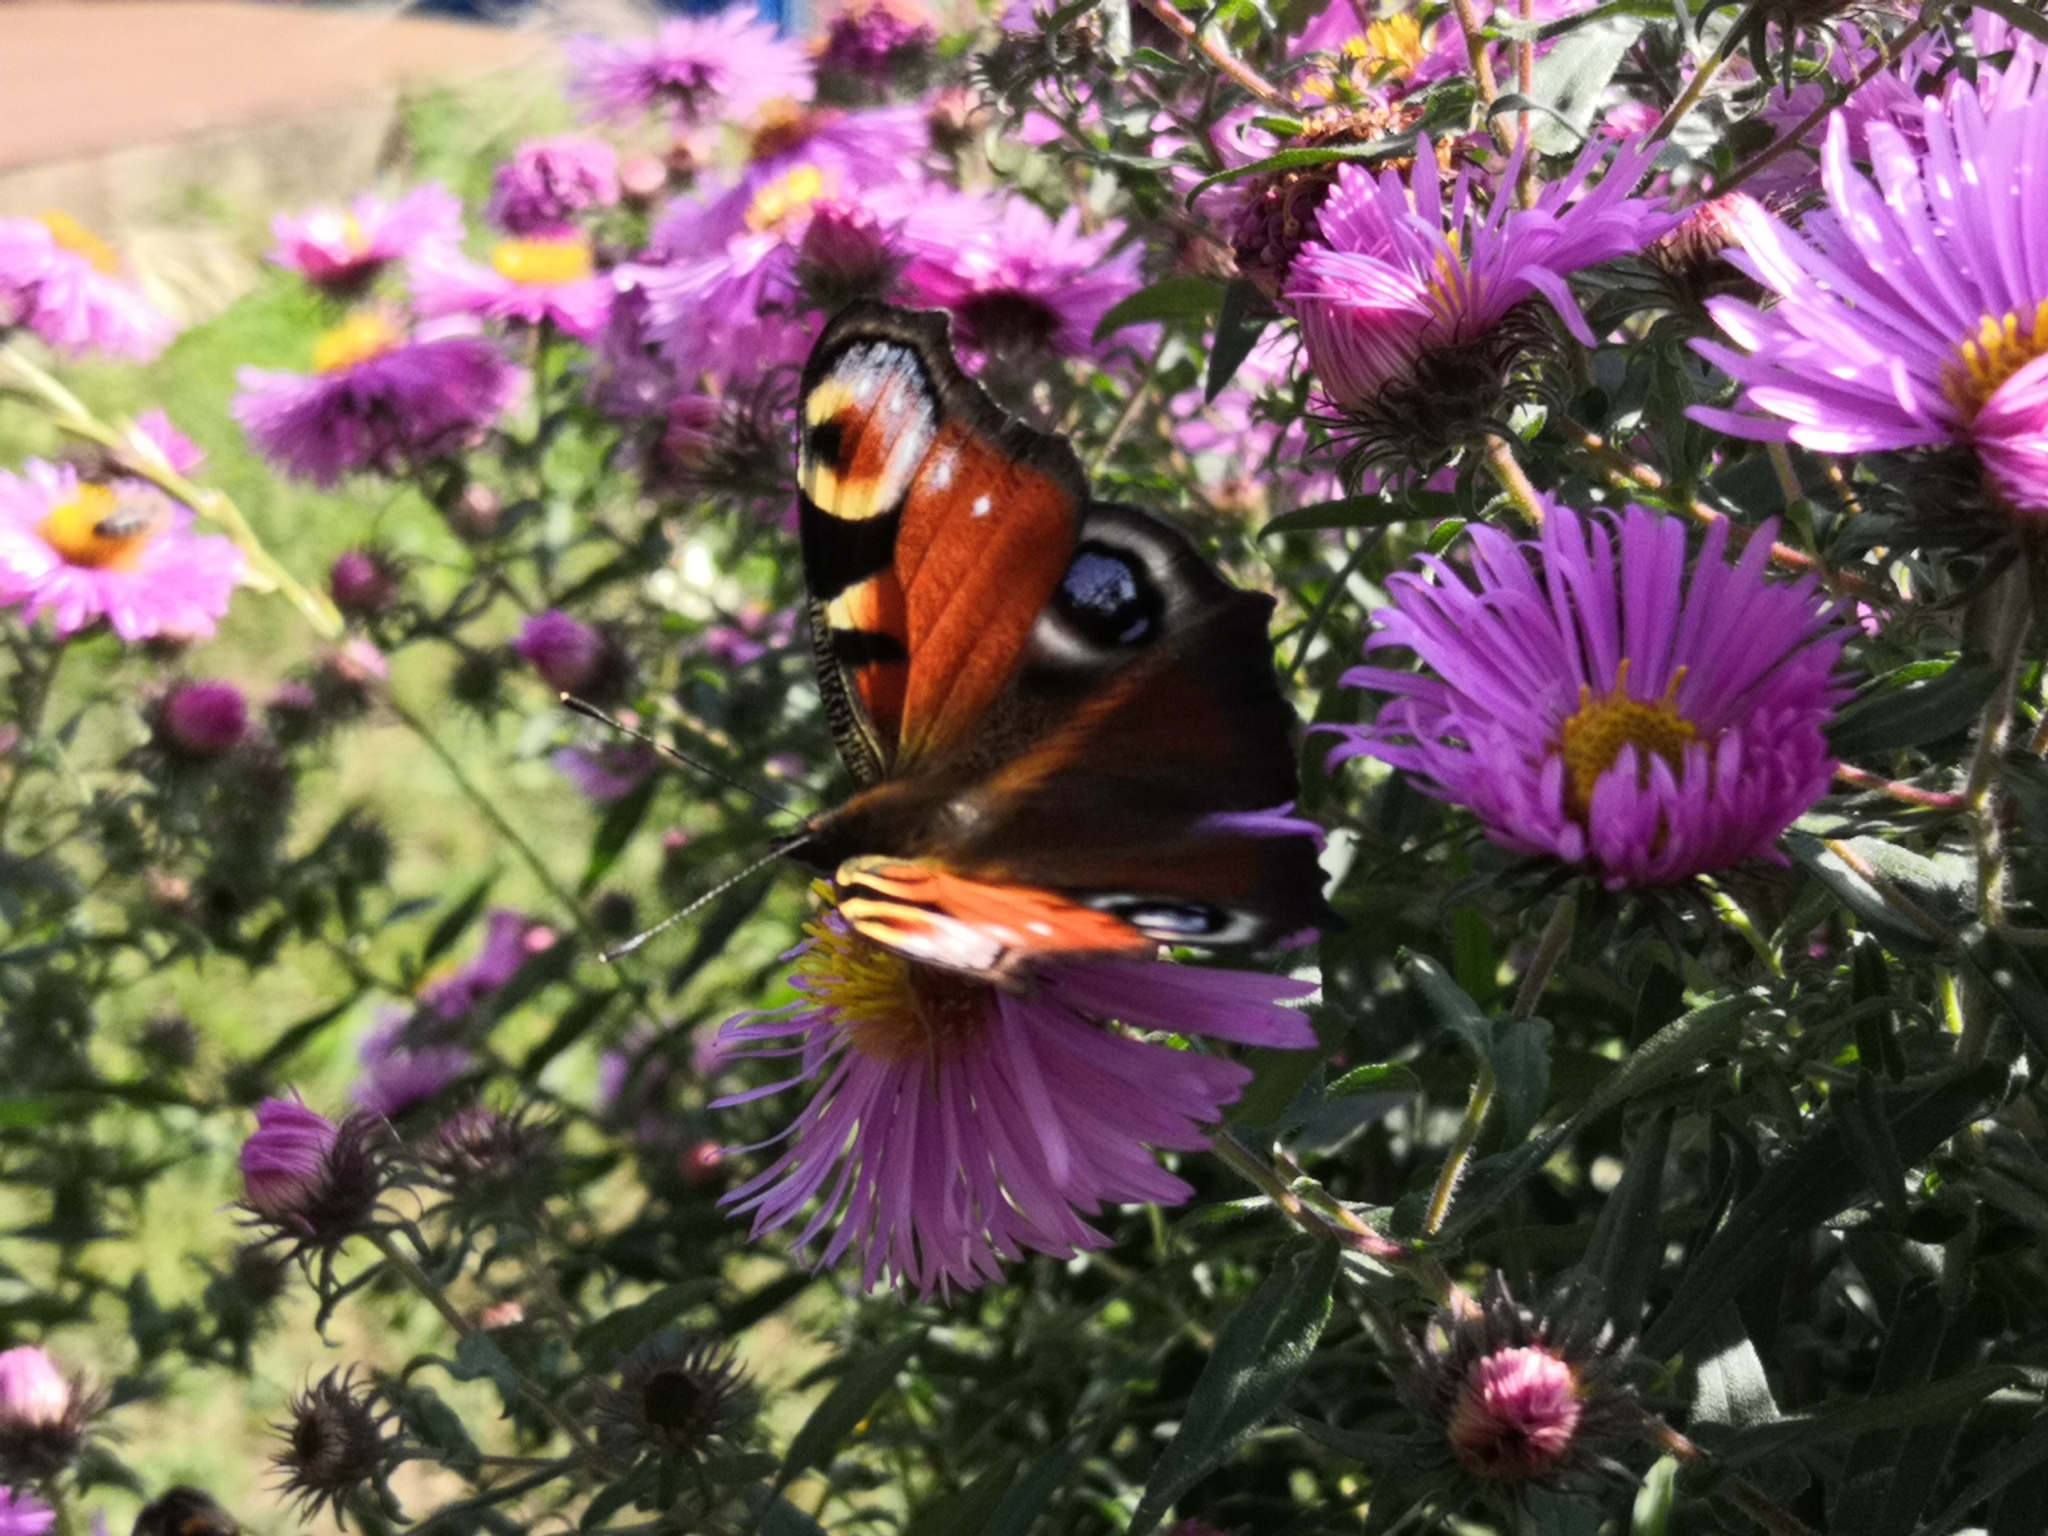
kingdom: Animalia
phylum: Arthropoda
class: Insecta
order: Lepidoptera
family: Nymphalidae
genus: Aglais
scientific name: Aglais io
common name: Peacock
